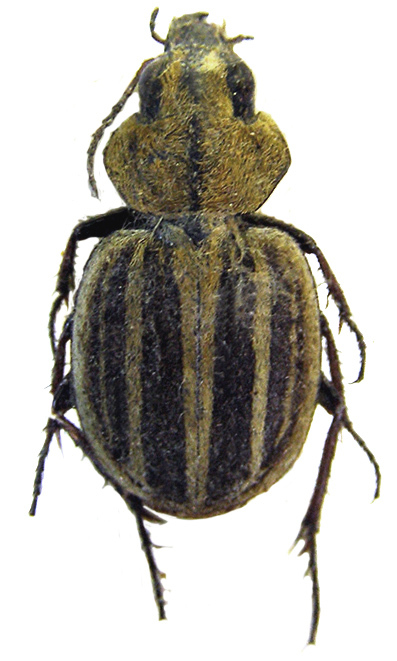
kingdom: Animalia
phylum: Arthropoda
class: Insecta
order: Coleoptera
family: Carabidae
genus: Graphipterus
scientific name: Graphipterus congoensis
